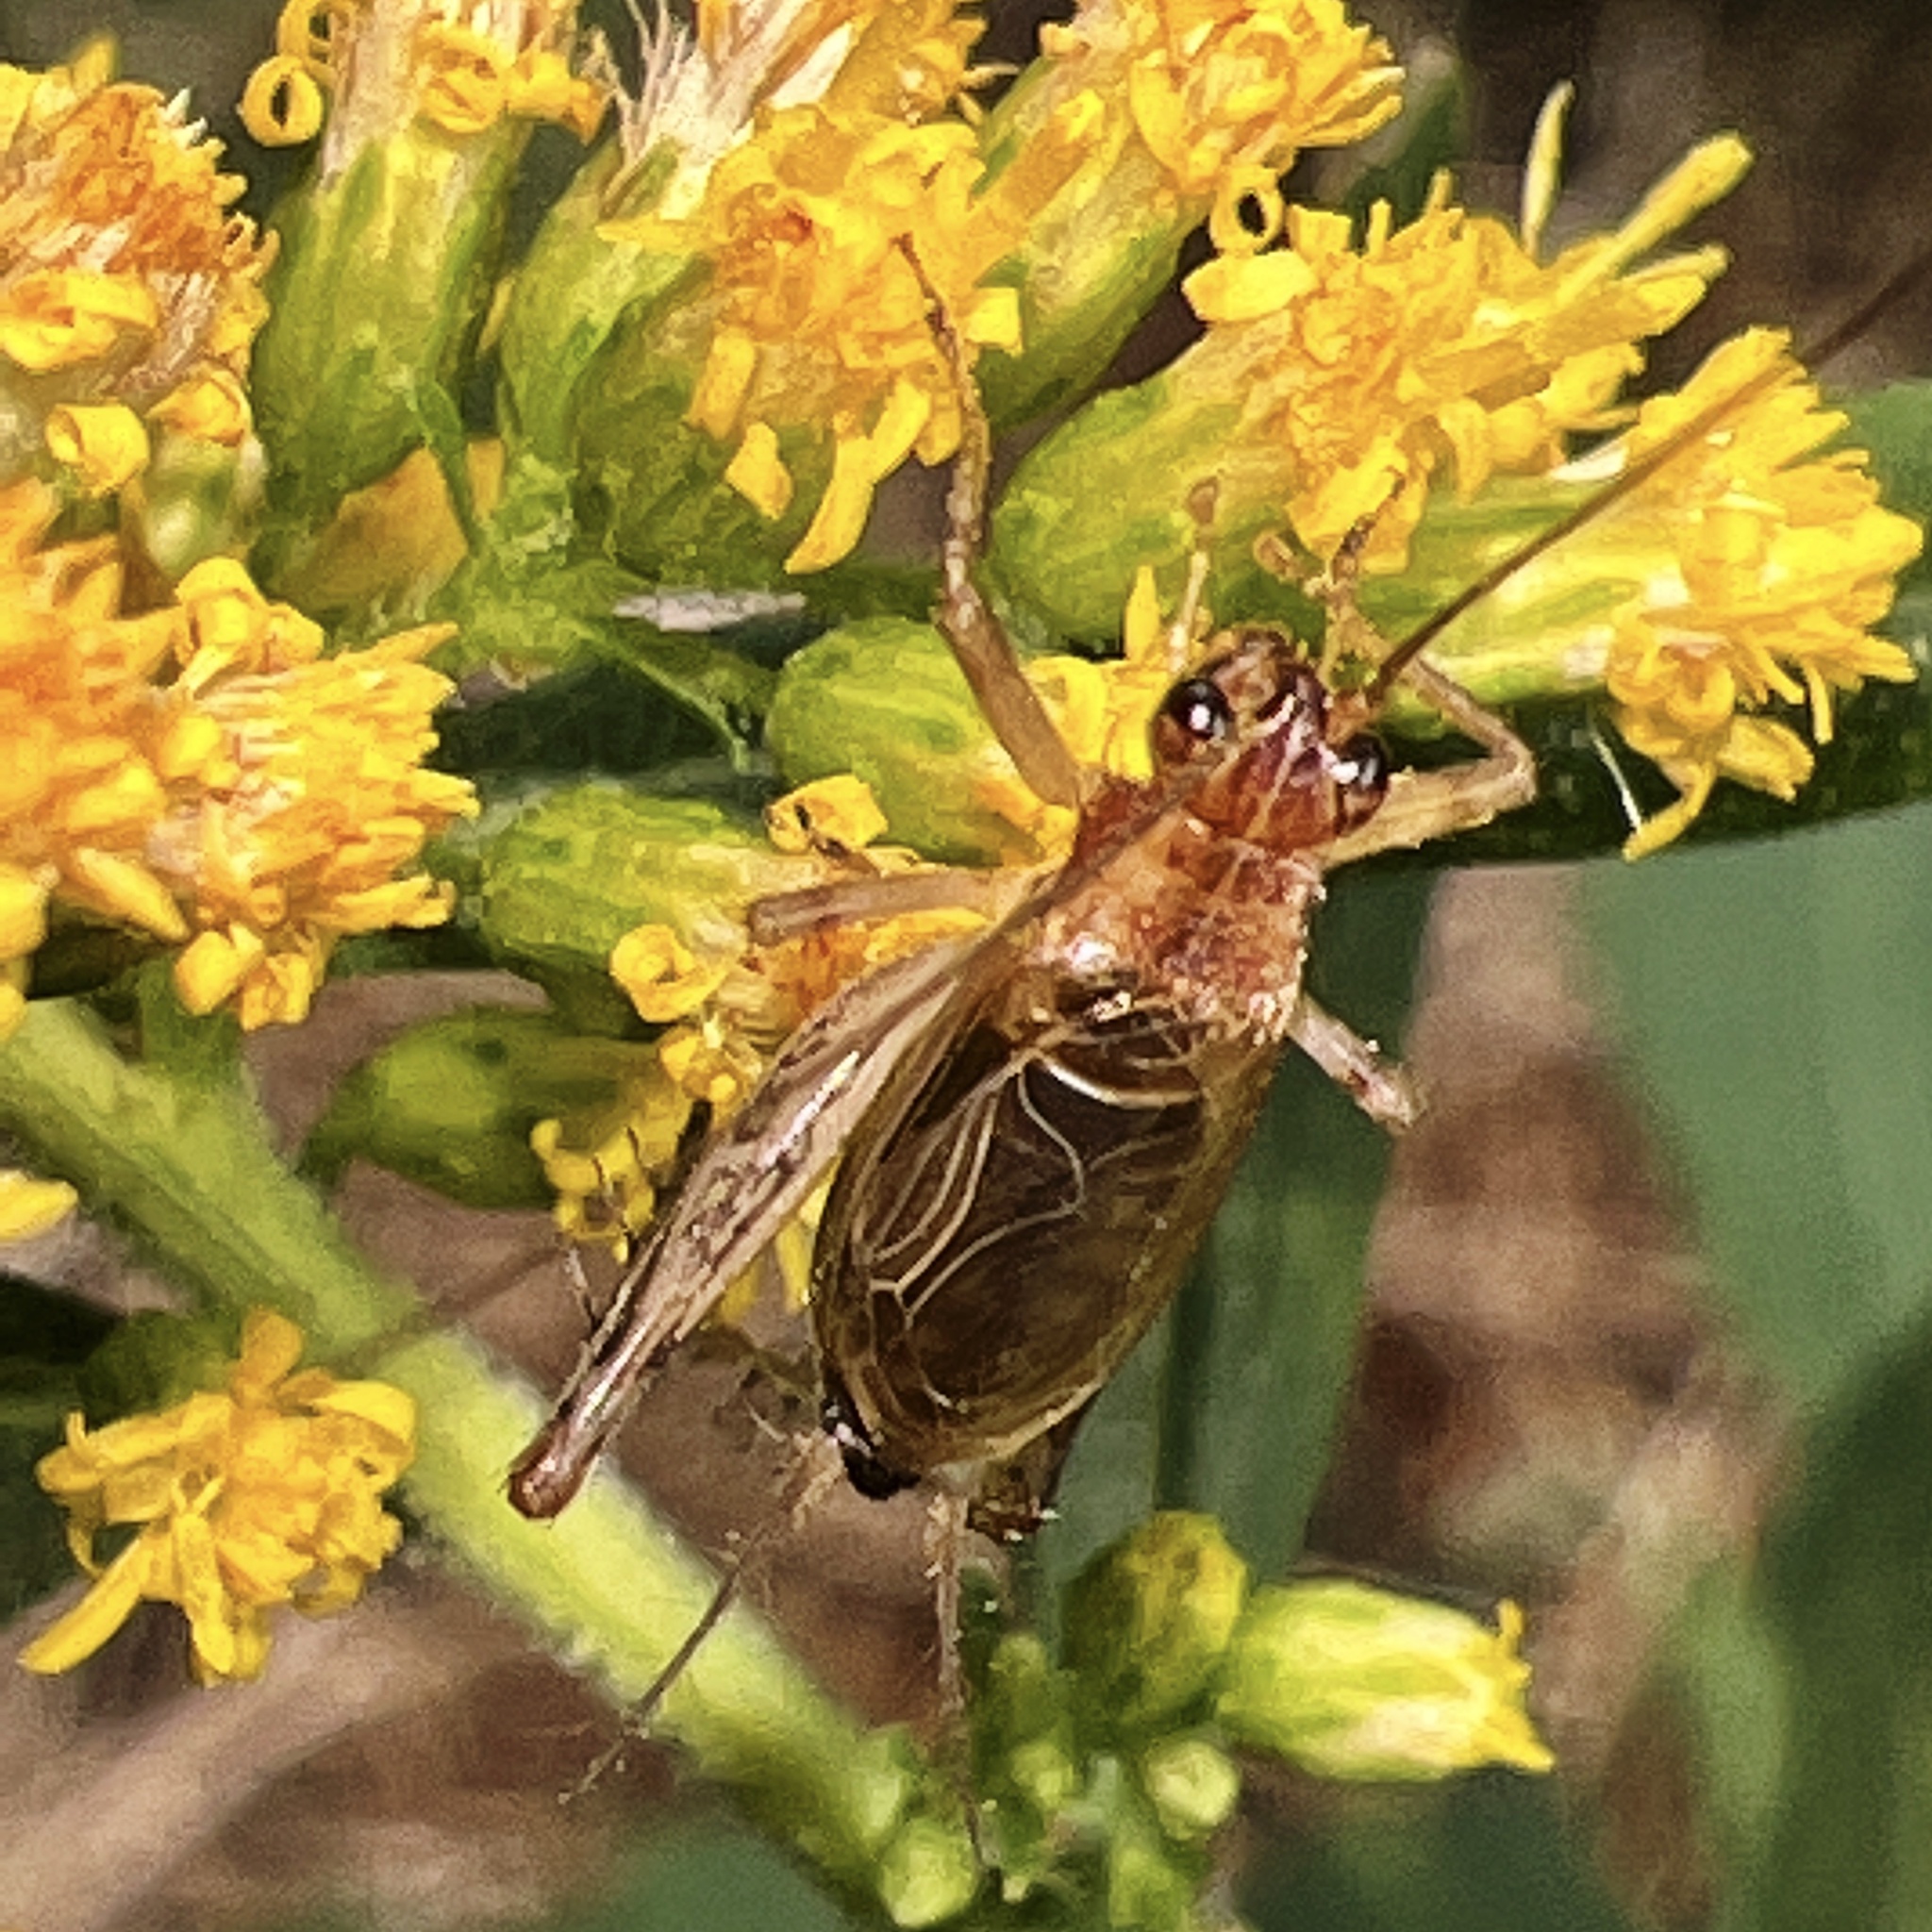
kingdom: Animalia
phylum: Arthropoda
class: Insecta
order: Orthoptera
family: Trigonidiidae
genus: Anaxipha
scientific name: Anaxipha exigua
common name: Say's bush cricket
